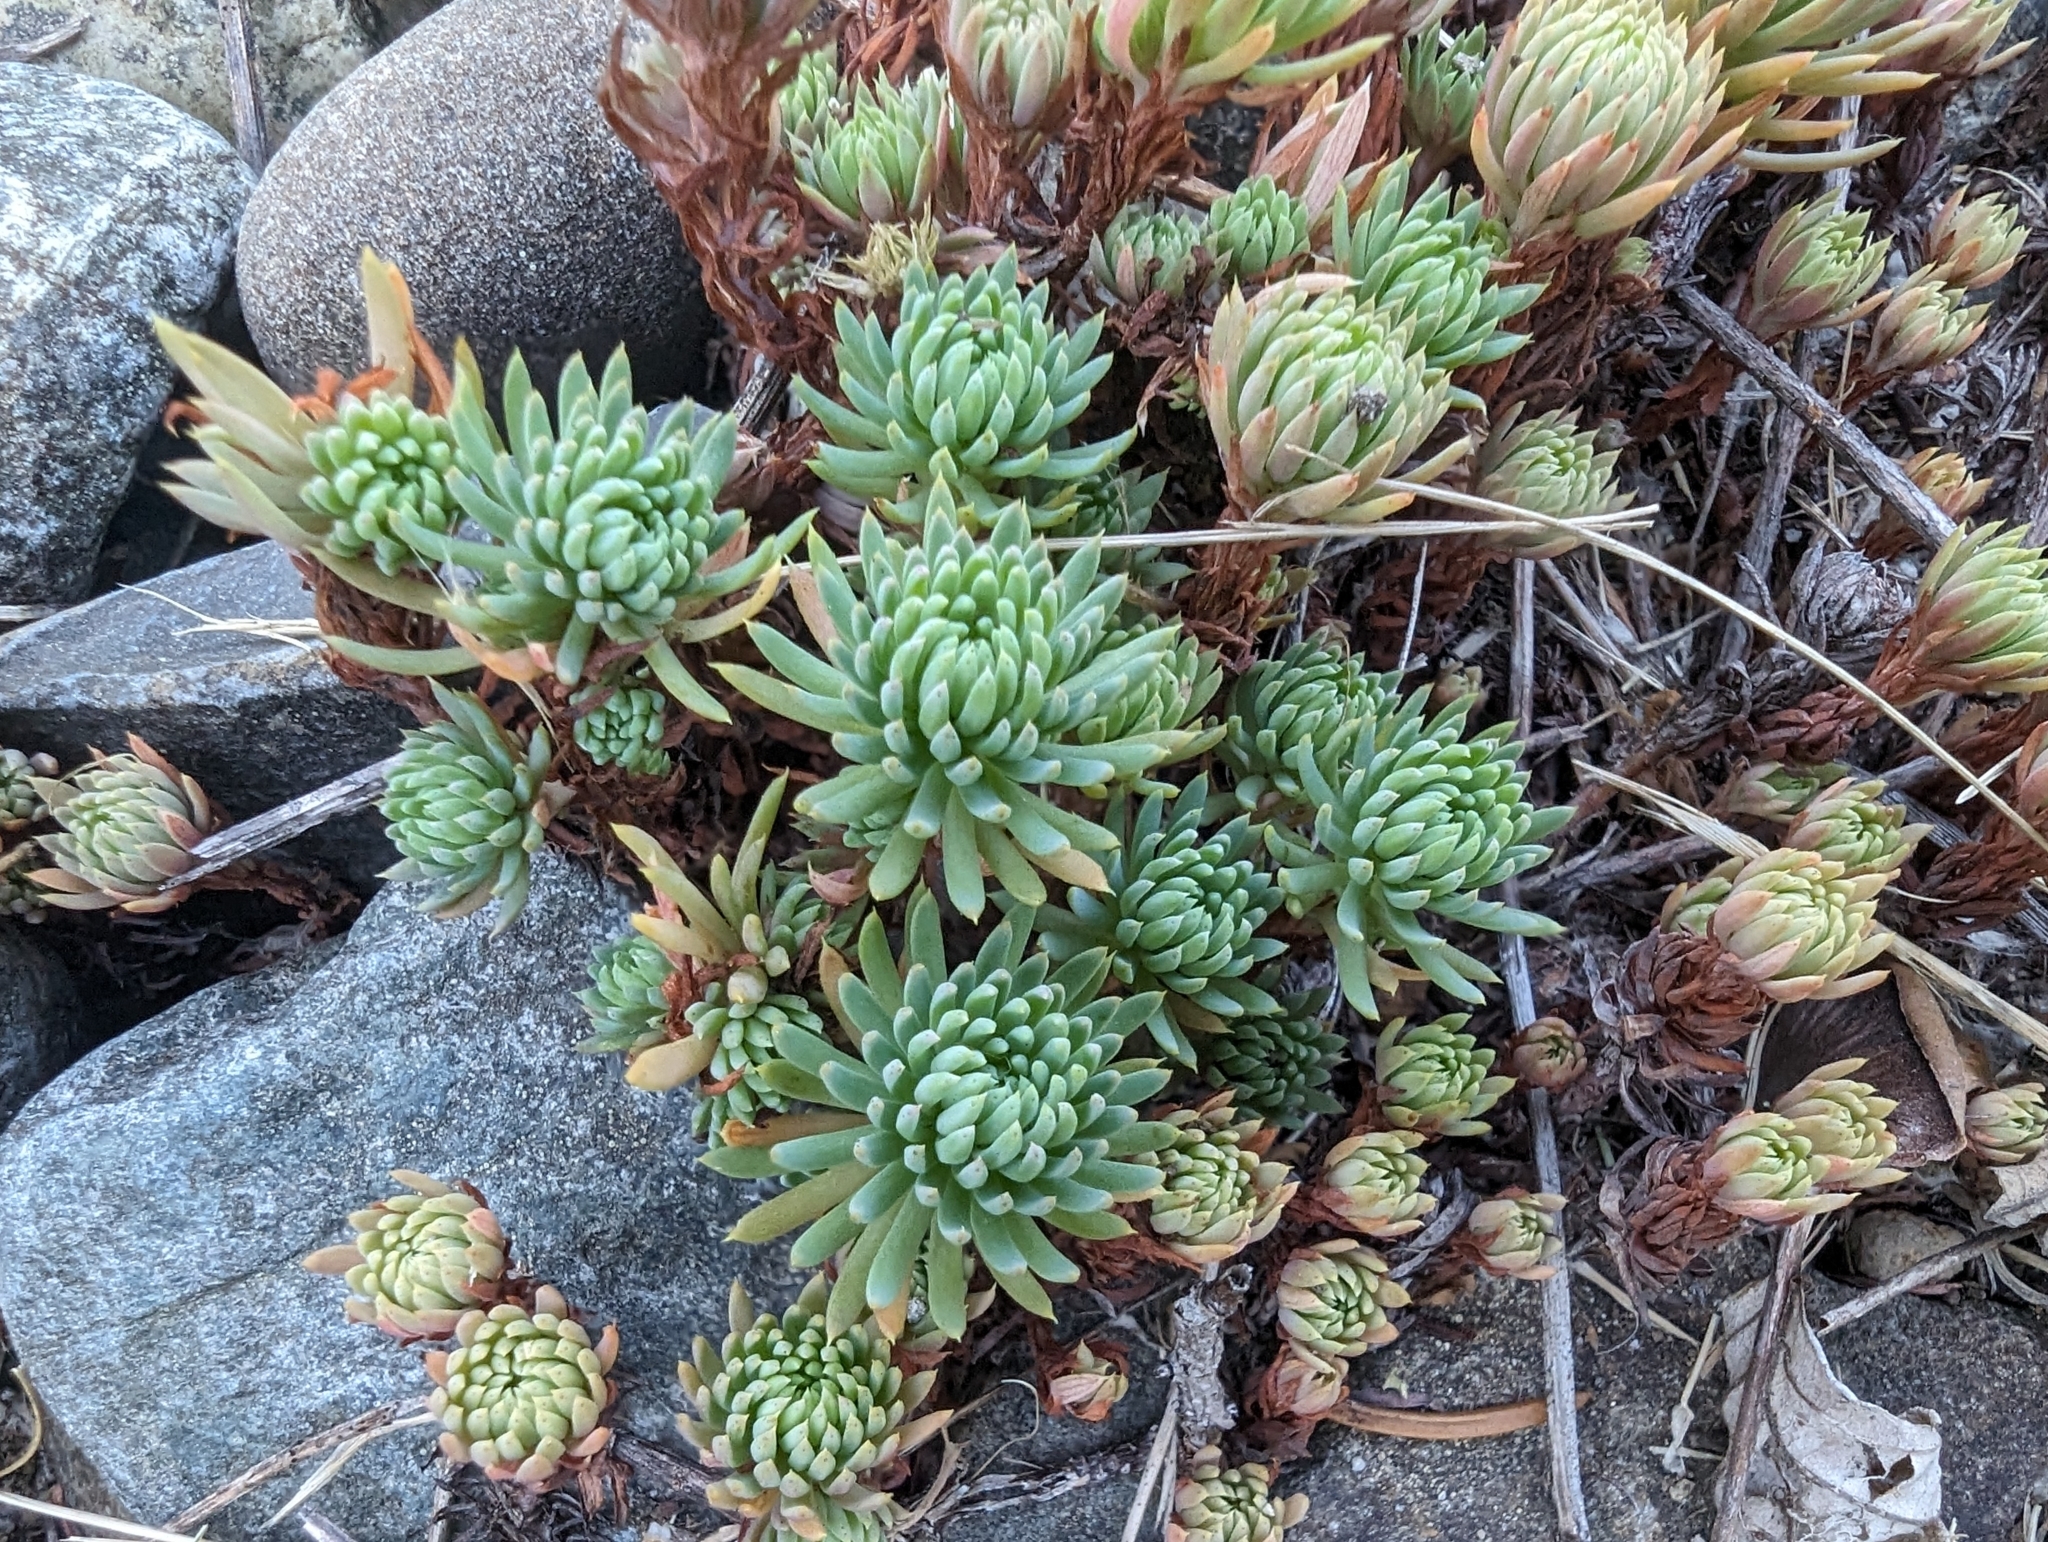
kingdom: Plantae
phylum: Tracheophyta
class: Magnoliopsida
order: Saxifragales
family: Crassulaceae
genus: Petrosedum
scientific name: Petrosedum forsterianum
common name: Forster's stonecrop
